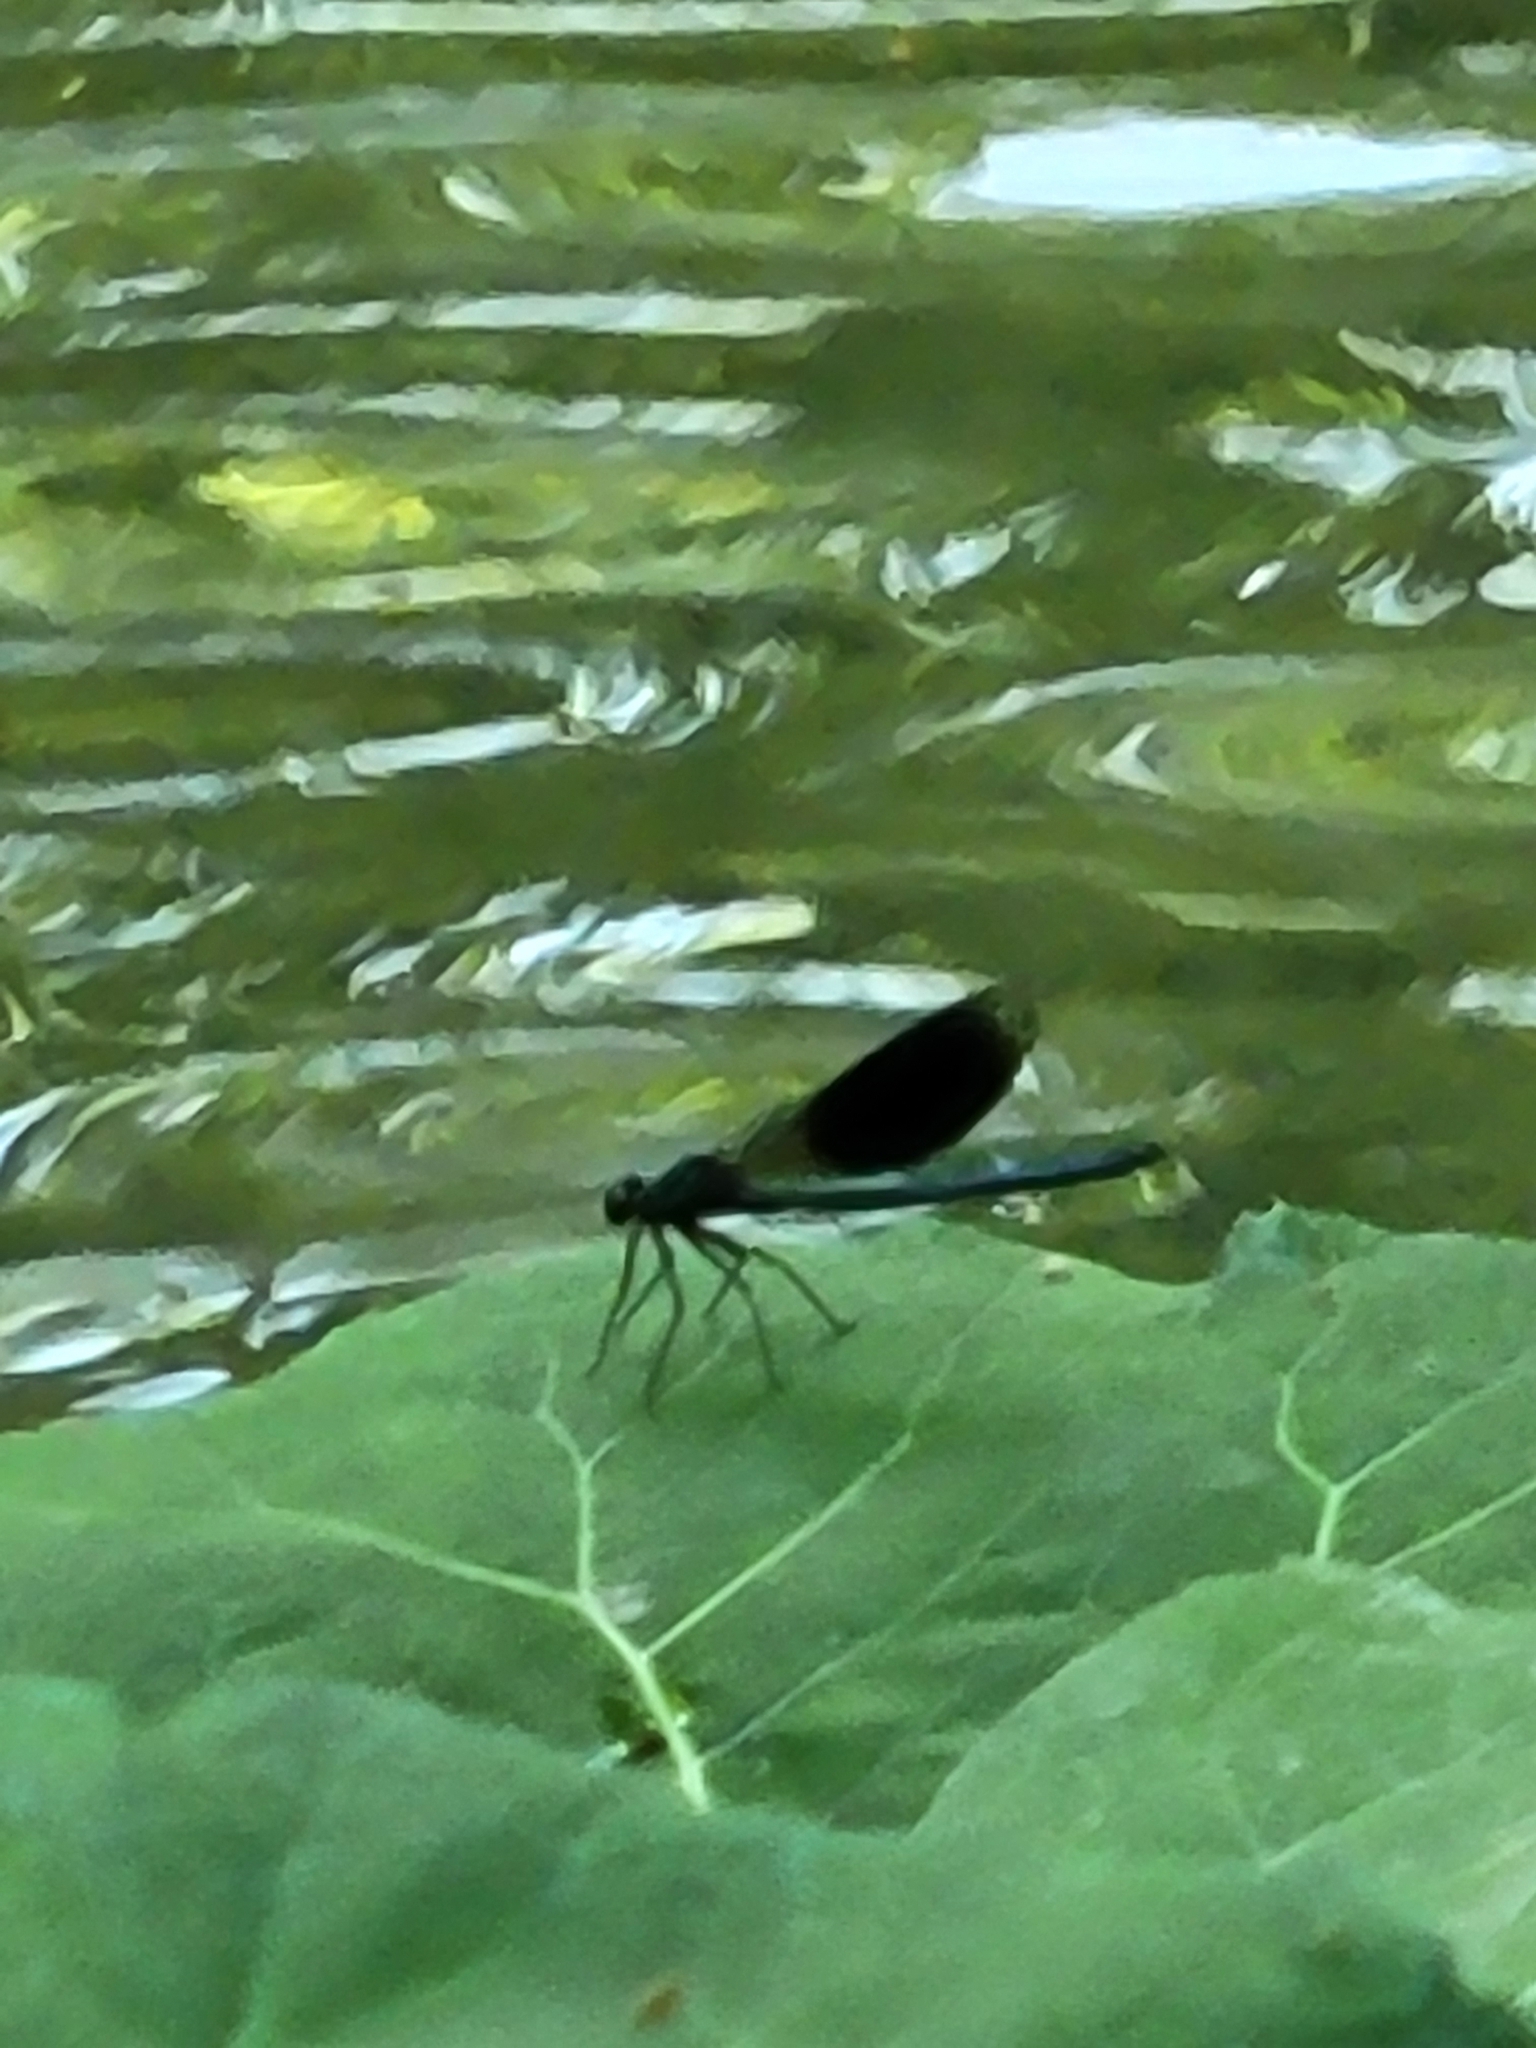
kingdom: Animalia
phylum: Arthropoda
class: Insecta
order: Odonata
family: Calopterygidae
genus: Calopteryx
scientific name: Calopteryx splendens
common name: Banded demoiselle
